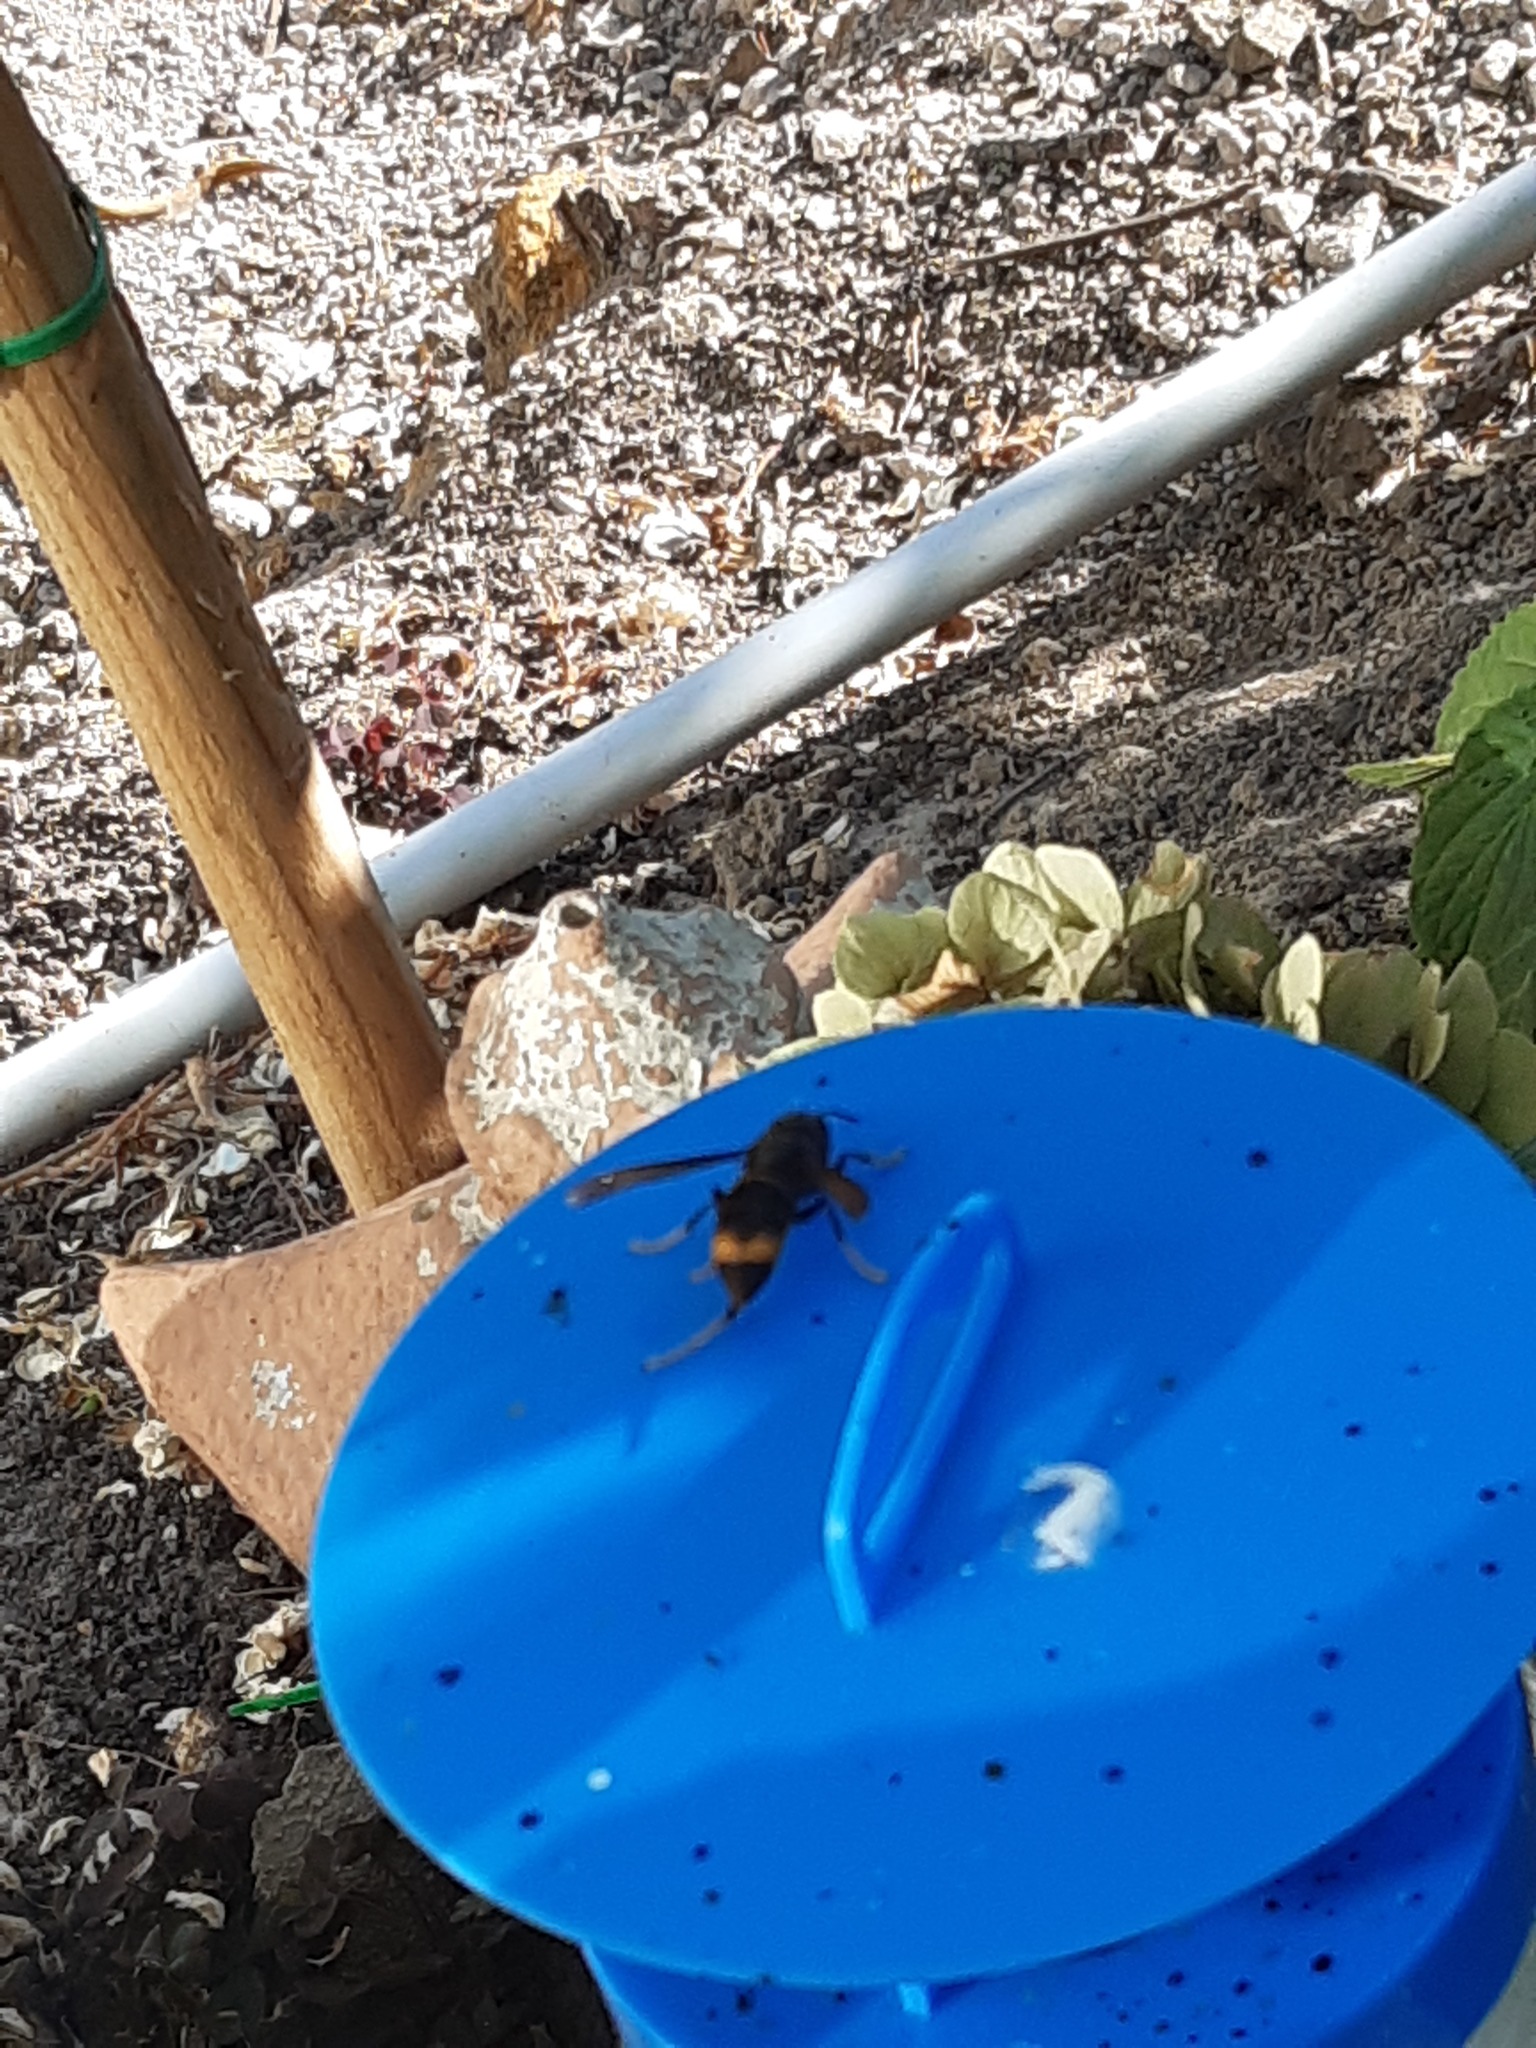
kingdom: Animalia
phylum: Arthropoda
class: Insecta
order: Hymenoptera
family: Vespidae
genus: Vespa
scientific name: Vespa velutina
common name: Asian hornet
